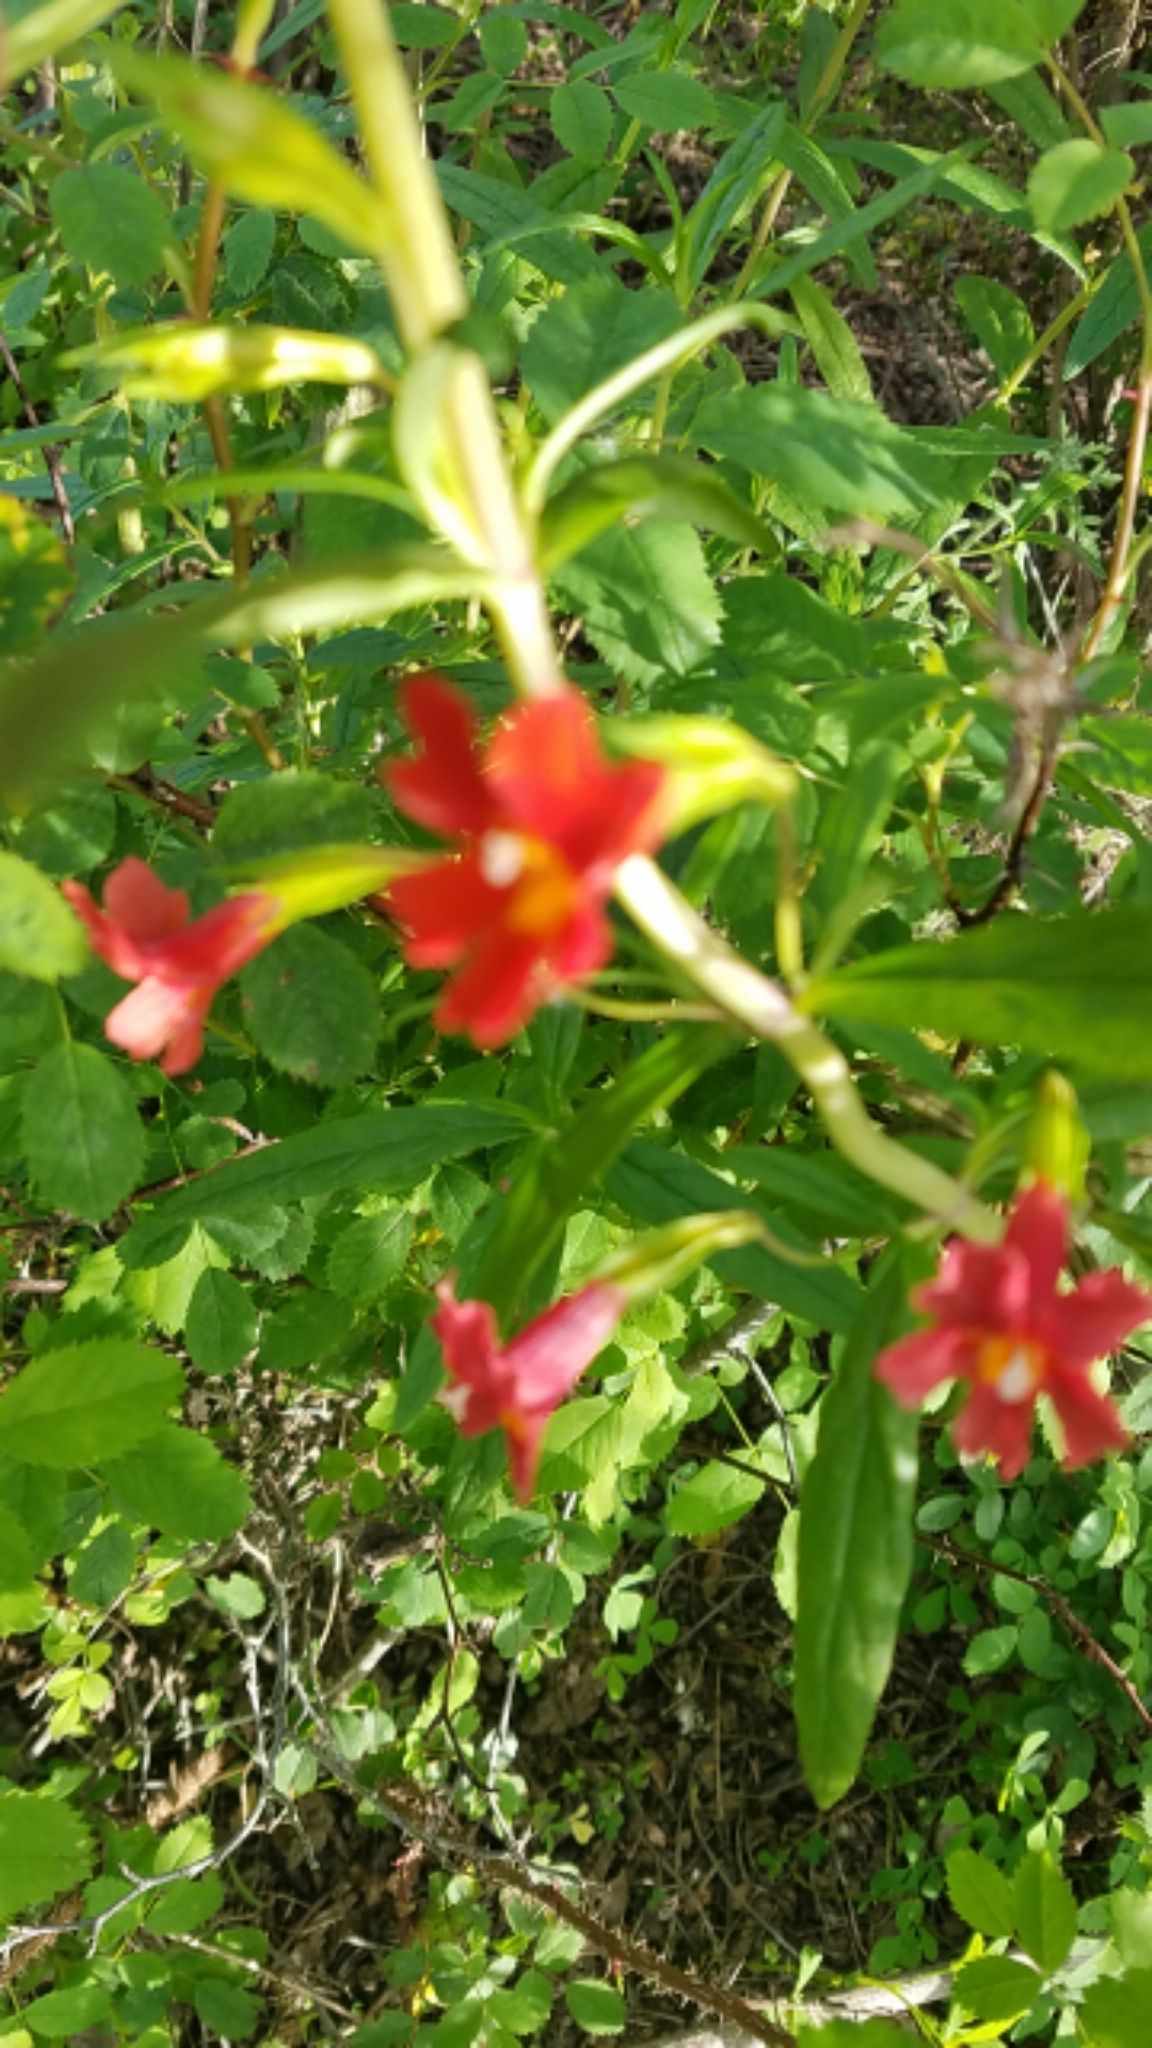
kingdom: Plantae
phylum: Tracheophyta
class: Magnoliopsida
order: Lamiales
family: Phrymaceae
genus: Diplacus
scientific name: Diplacus puniceus
